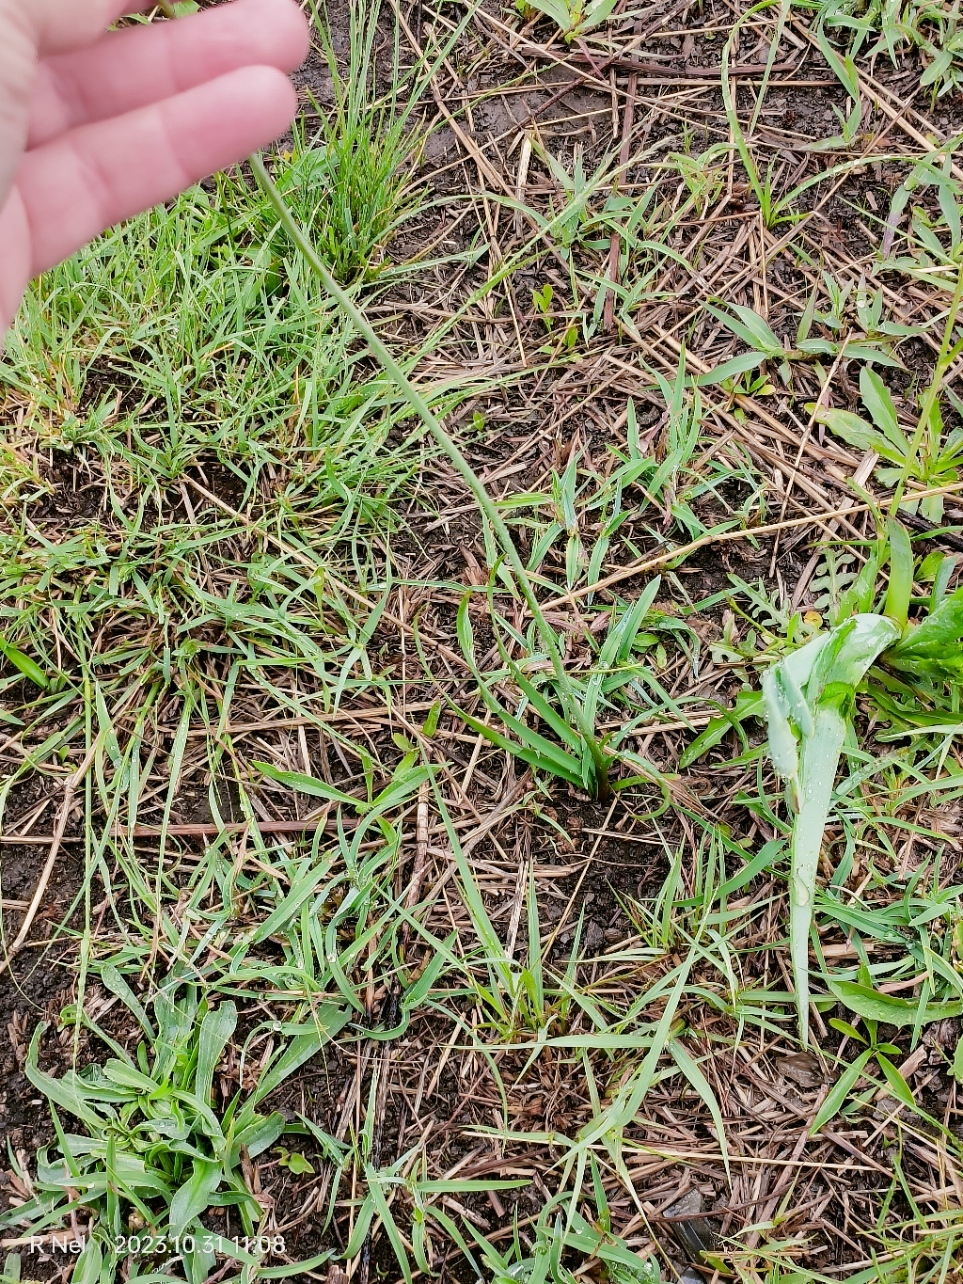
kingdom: Plantae
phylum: Tracheophyta
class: Liliopsida
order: Asparagales
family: Amaryllidaceae
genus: Tulbaghia
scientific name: Tulbaghia acutiloba
